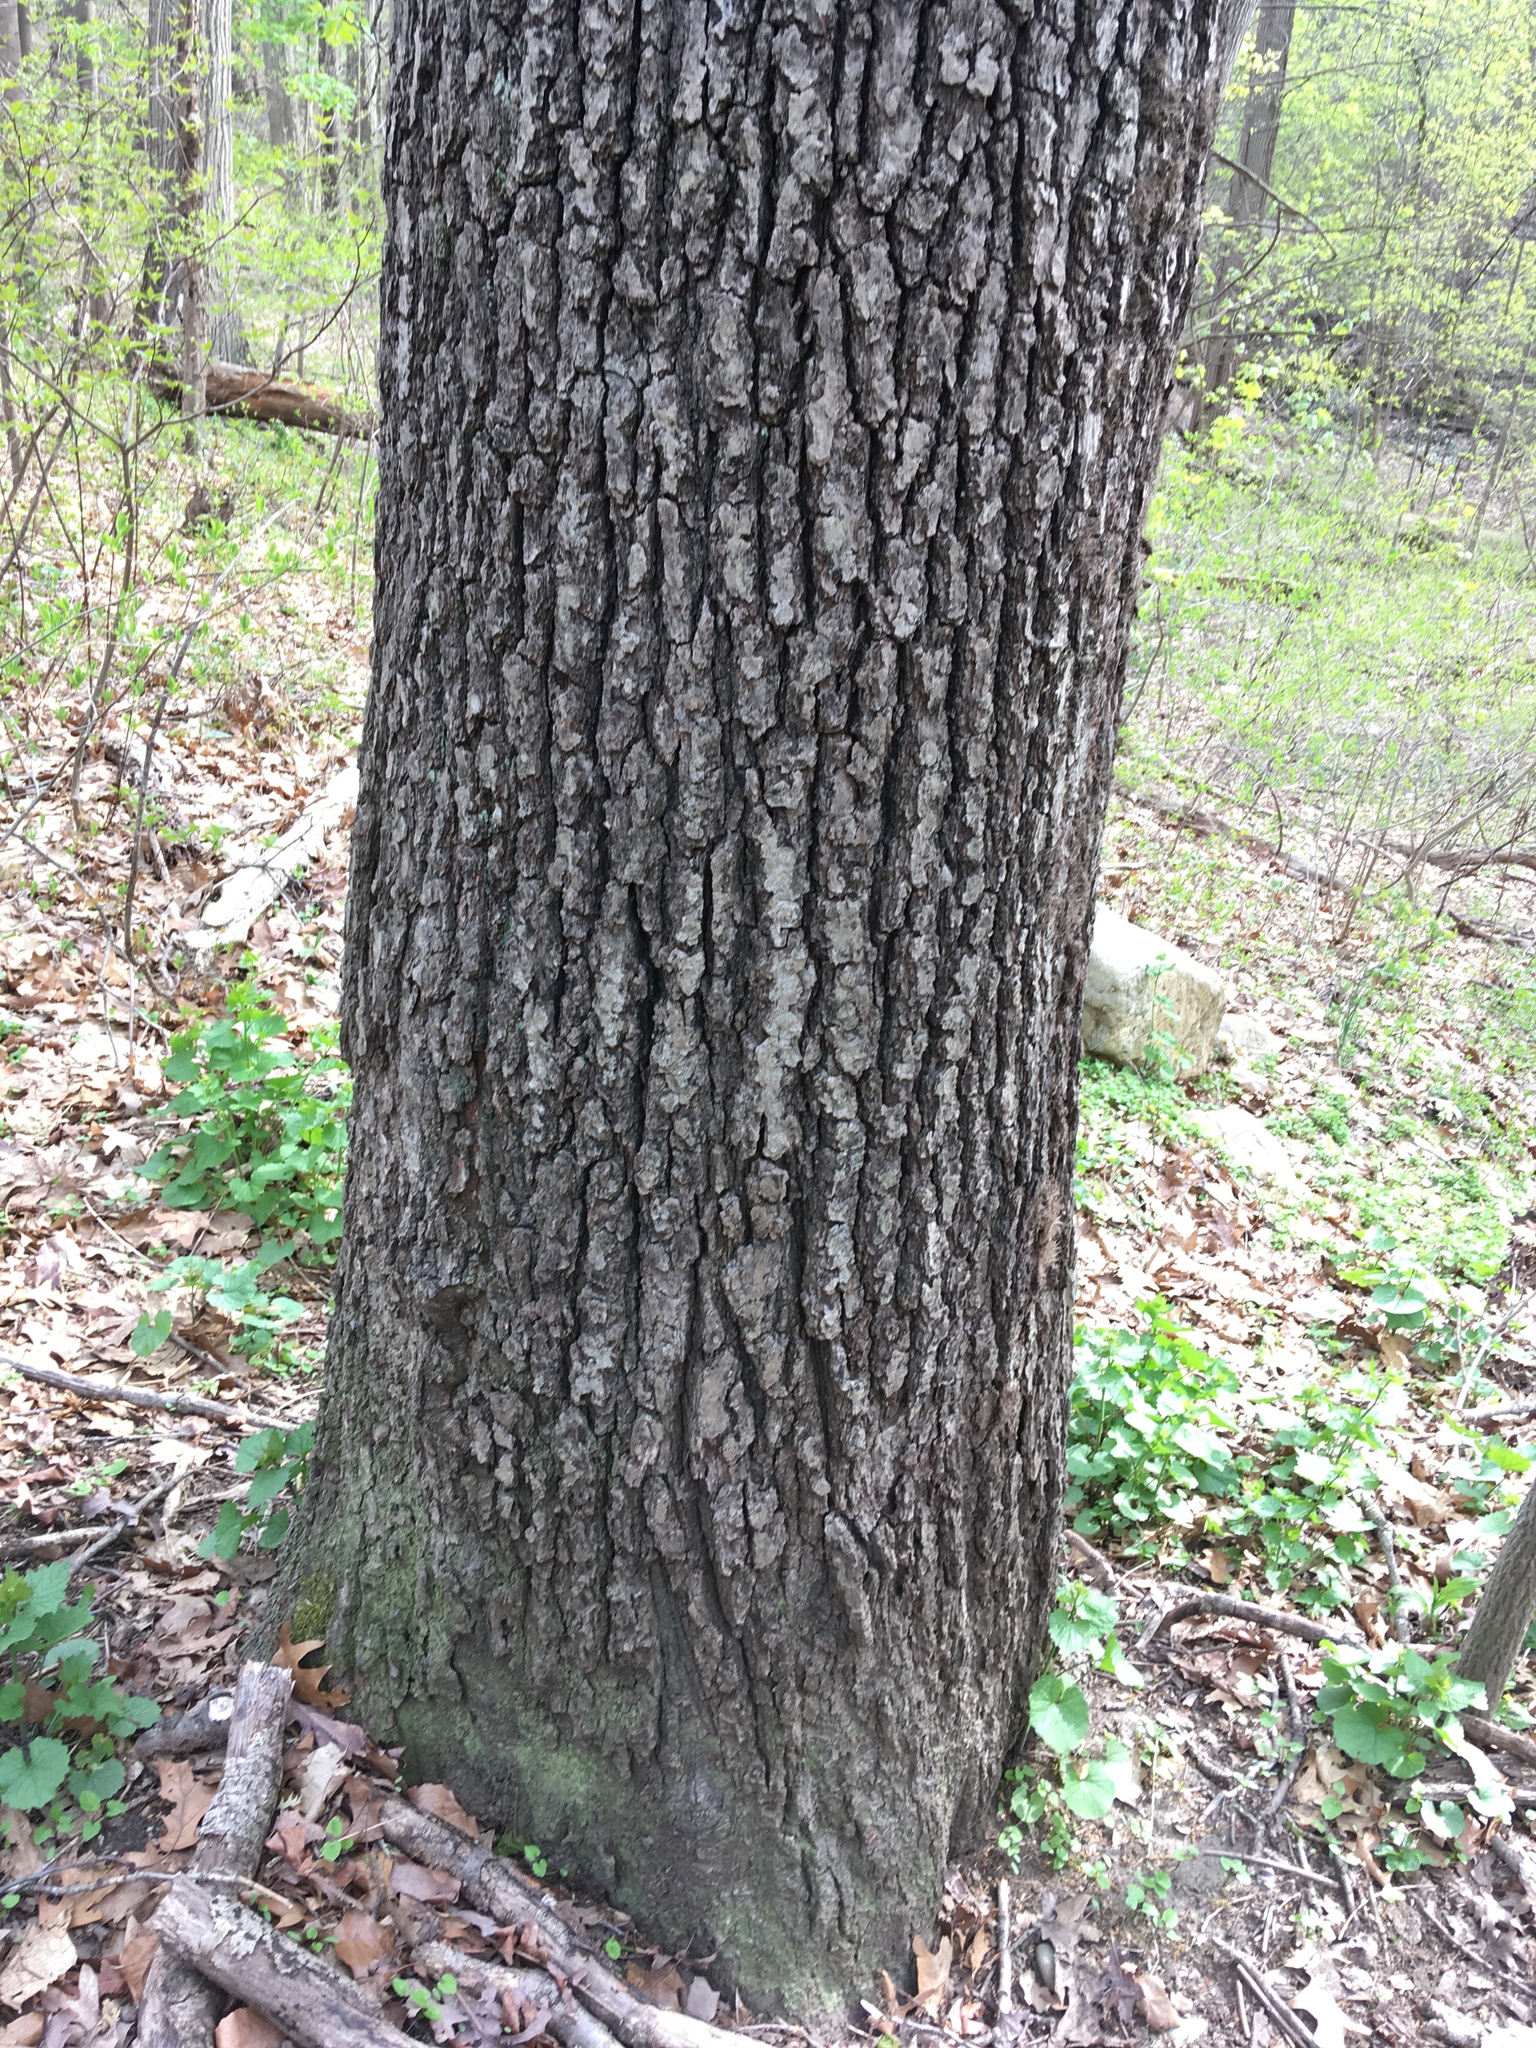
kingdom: Plantae
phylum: Tracheophyta
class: Magnoliopsida
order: Fagales
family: Fagaceae
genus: Quercus
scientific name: Quercus velutina
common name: Black oak
